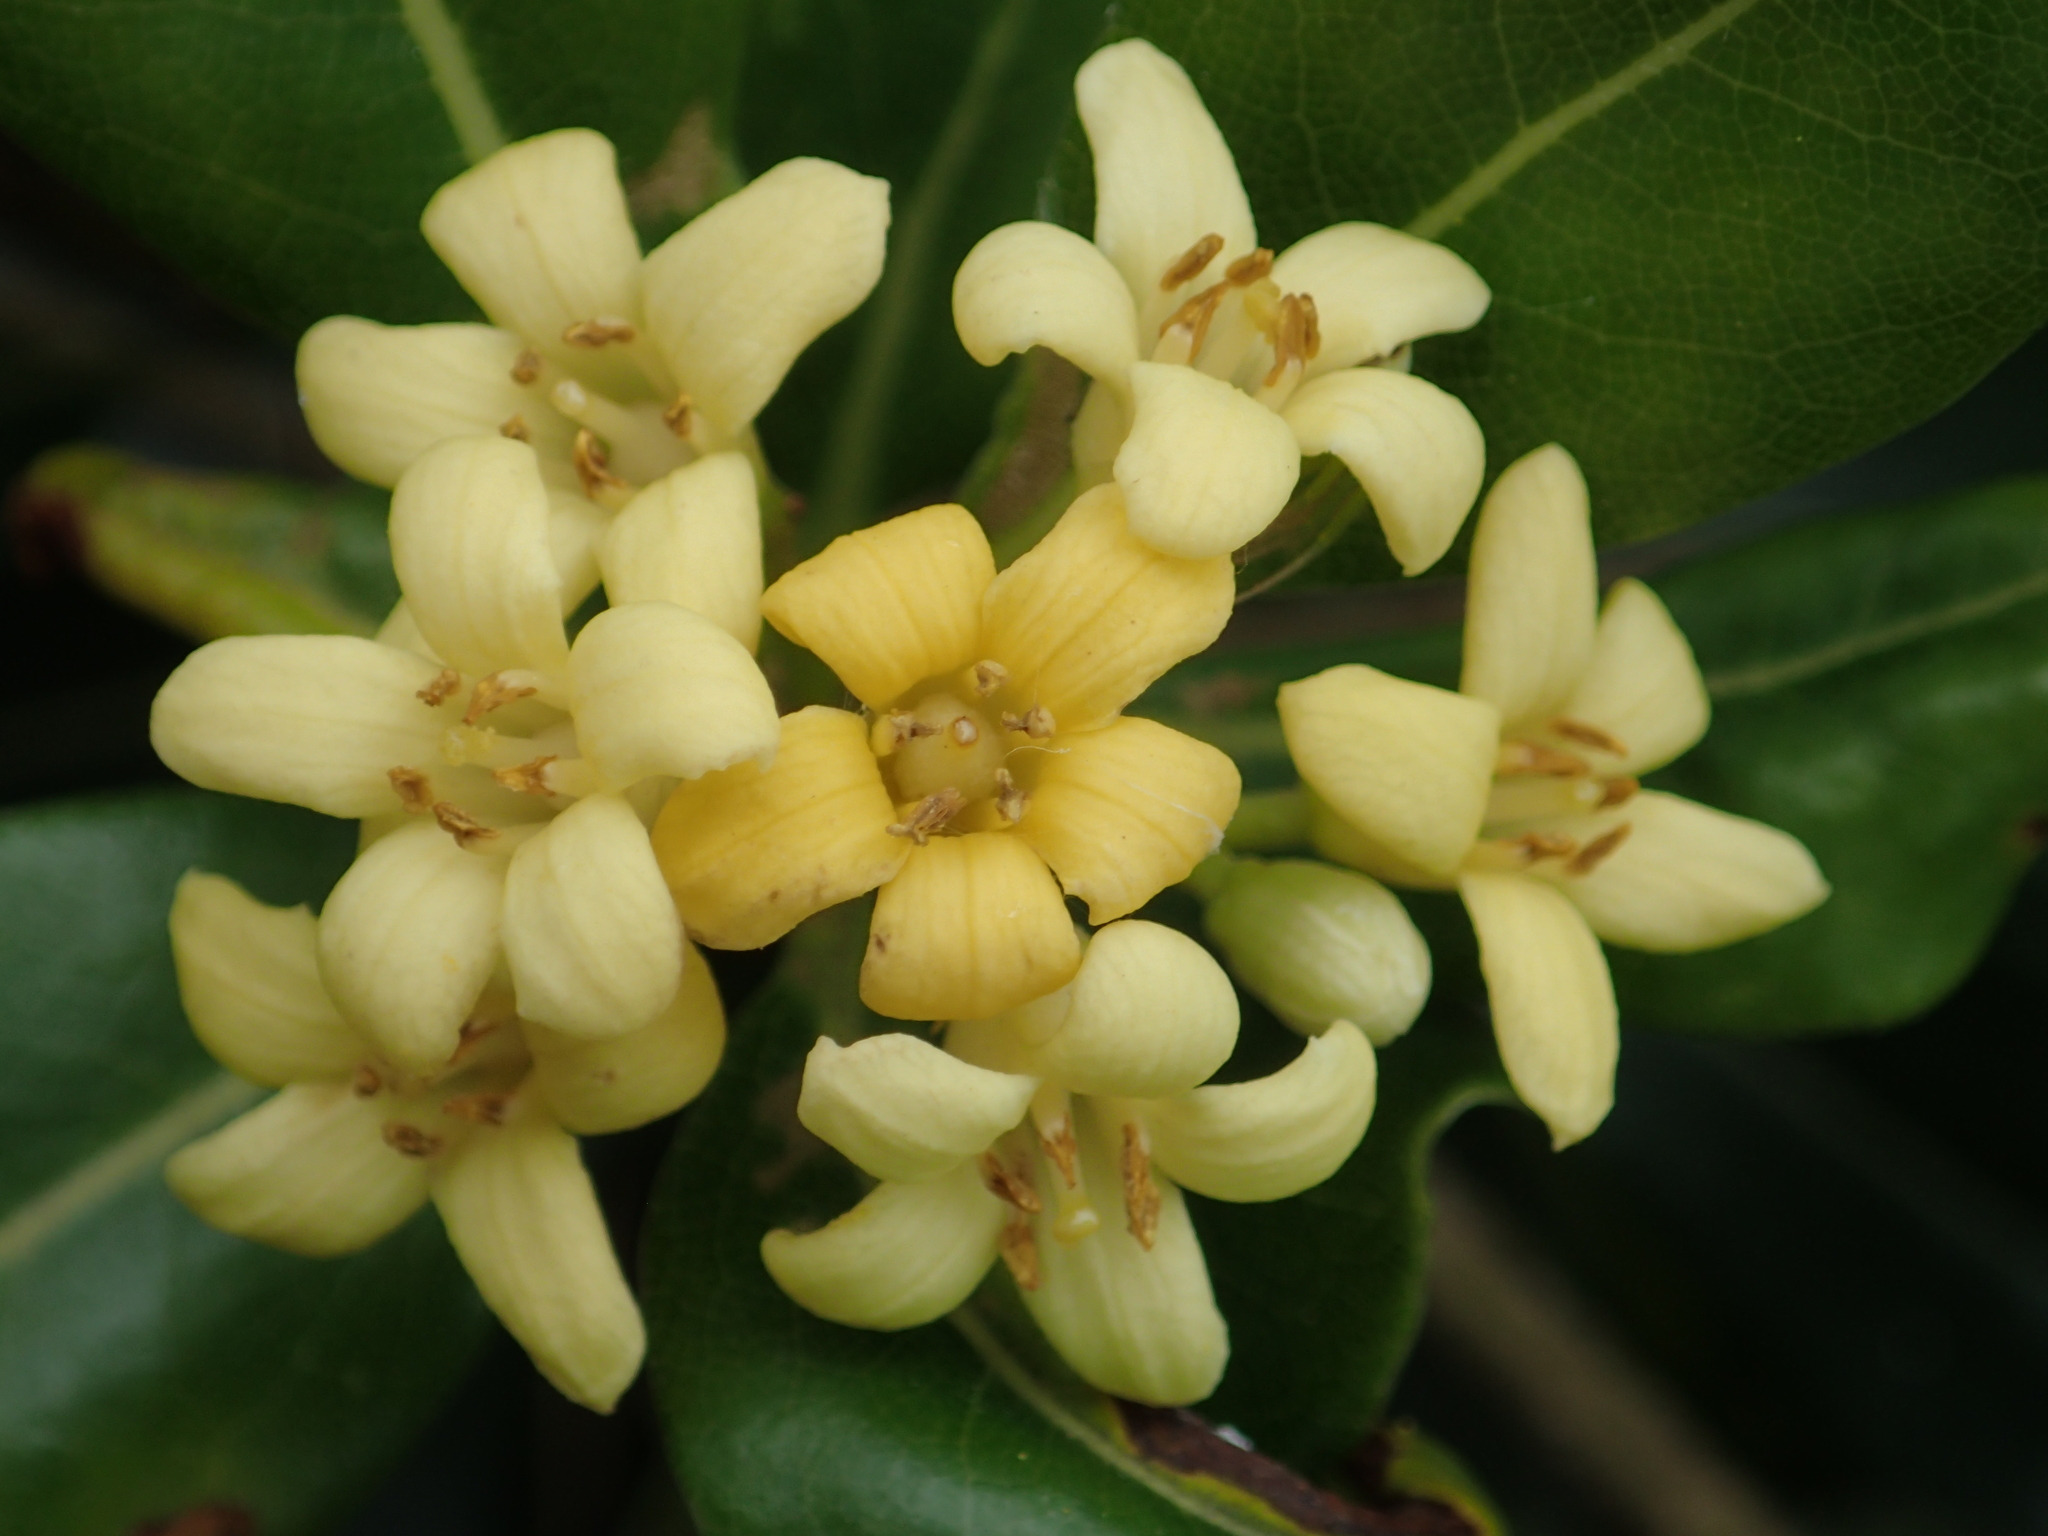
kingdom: Plantae
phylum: Tracheophyta
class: Magnoliopsida
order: Apiales
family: Pittosporaceae
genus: Pittosporum
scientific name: Pittosporum tobira
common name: Japanese cheesewood
